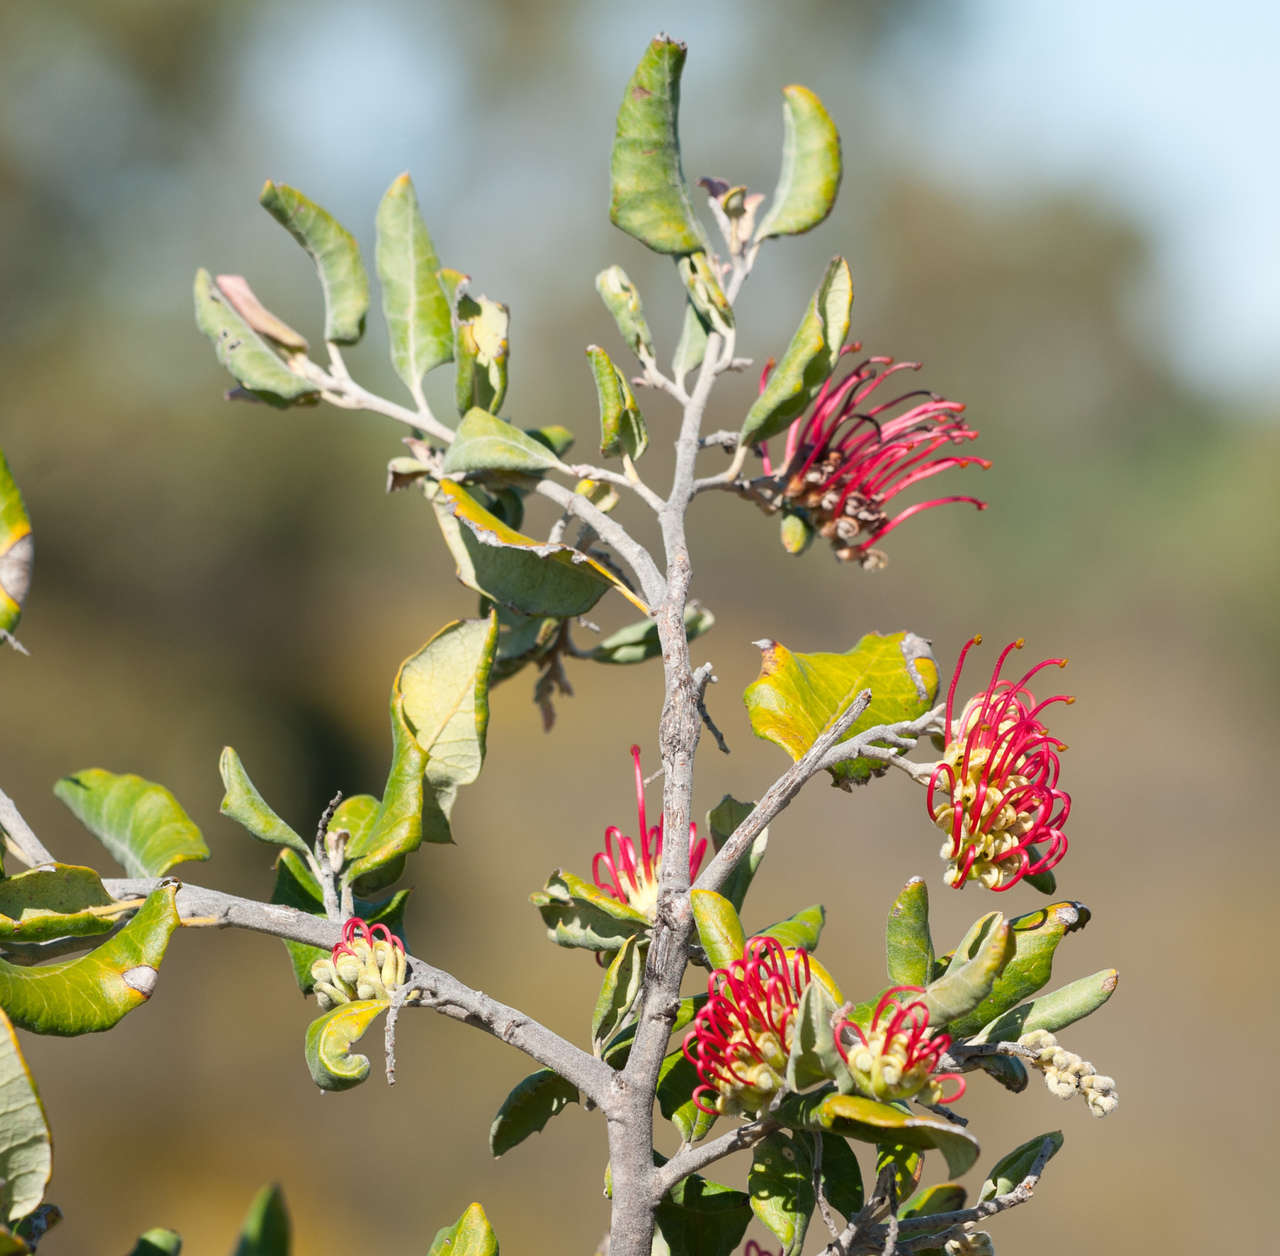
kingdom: Plantae
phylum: Tracheophyta
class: Magnoliopsida
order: Proteales
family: Proteaceae
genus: Grevillea
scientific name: Grevillea aquifolium
